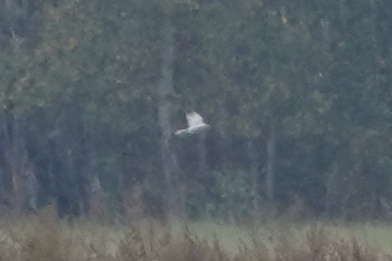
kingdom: Animalia
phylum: Chordata
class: Aves
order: Accipitriformes
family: Accipitridae
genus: Circus
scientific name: Circus macrourus
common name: Pallid harrier
